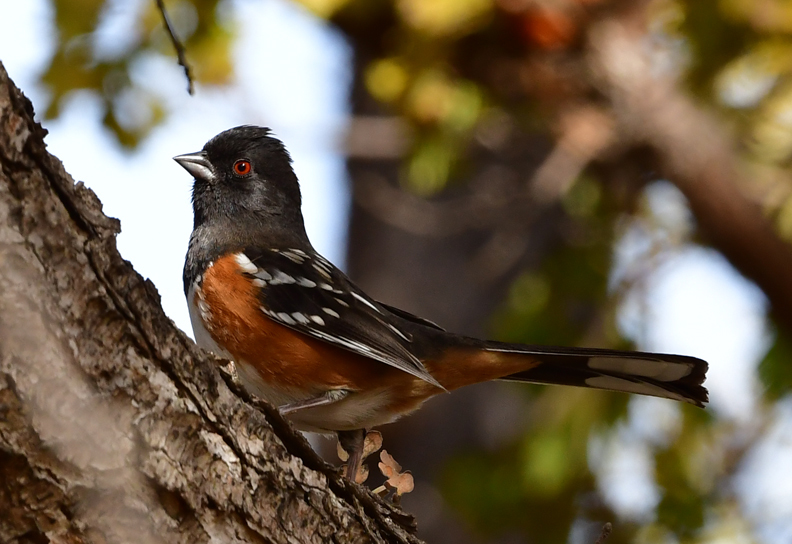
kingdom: Animalia
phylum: Chordata
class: Aves
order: Passeriformes
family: Passerellidae
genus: Pipilo
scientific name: Pipilo maculatus
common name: Spotted towhee
